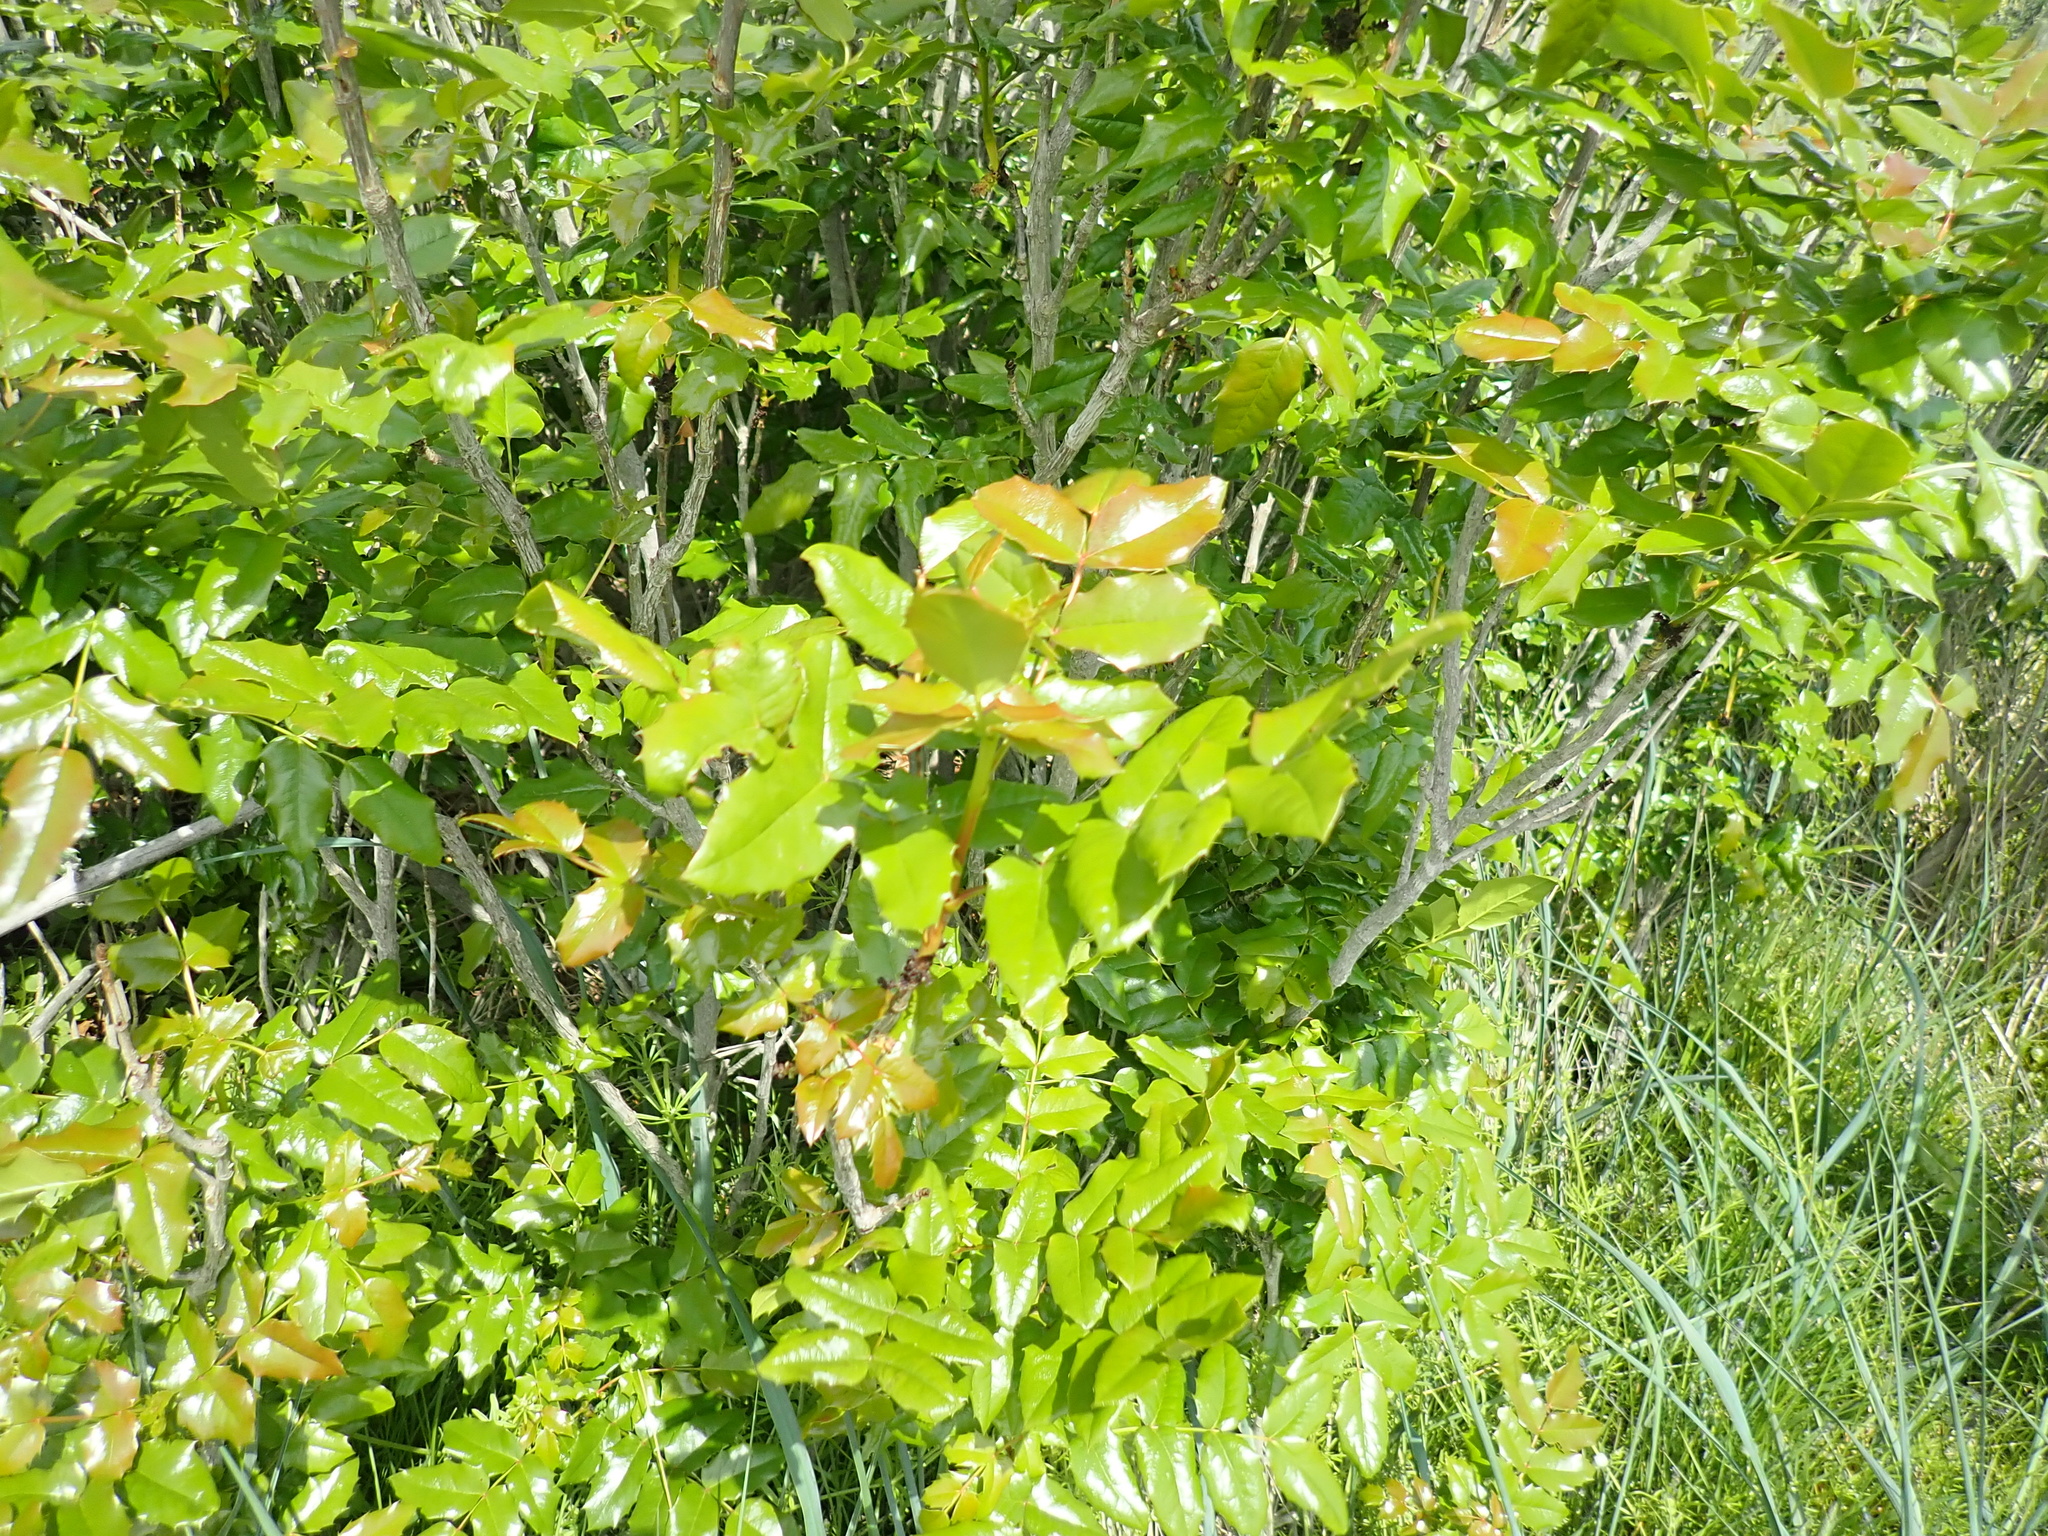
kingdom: Plantae
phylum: Tracheophyta
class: Magnoliopsida
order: Ranunculales
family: Berberidaceae
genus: Mahonia
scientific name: Mahonia aquifolium
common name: Oregon-grape
